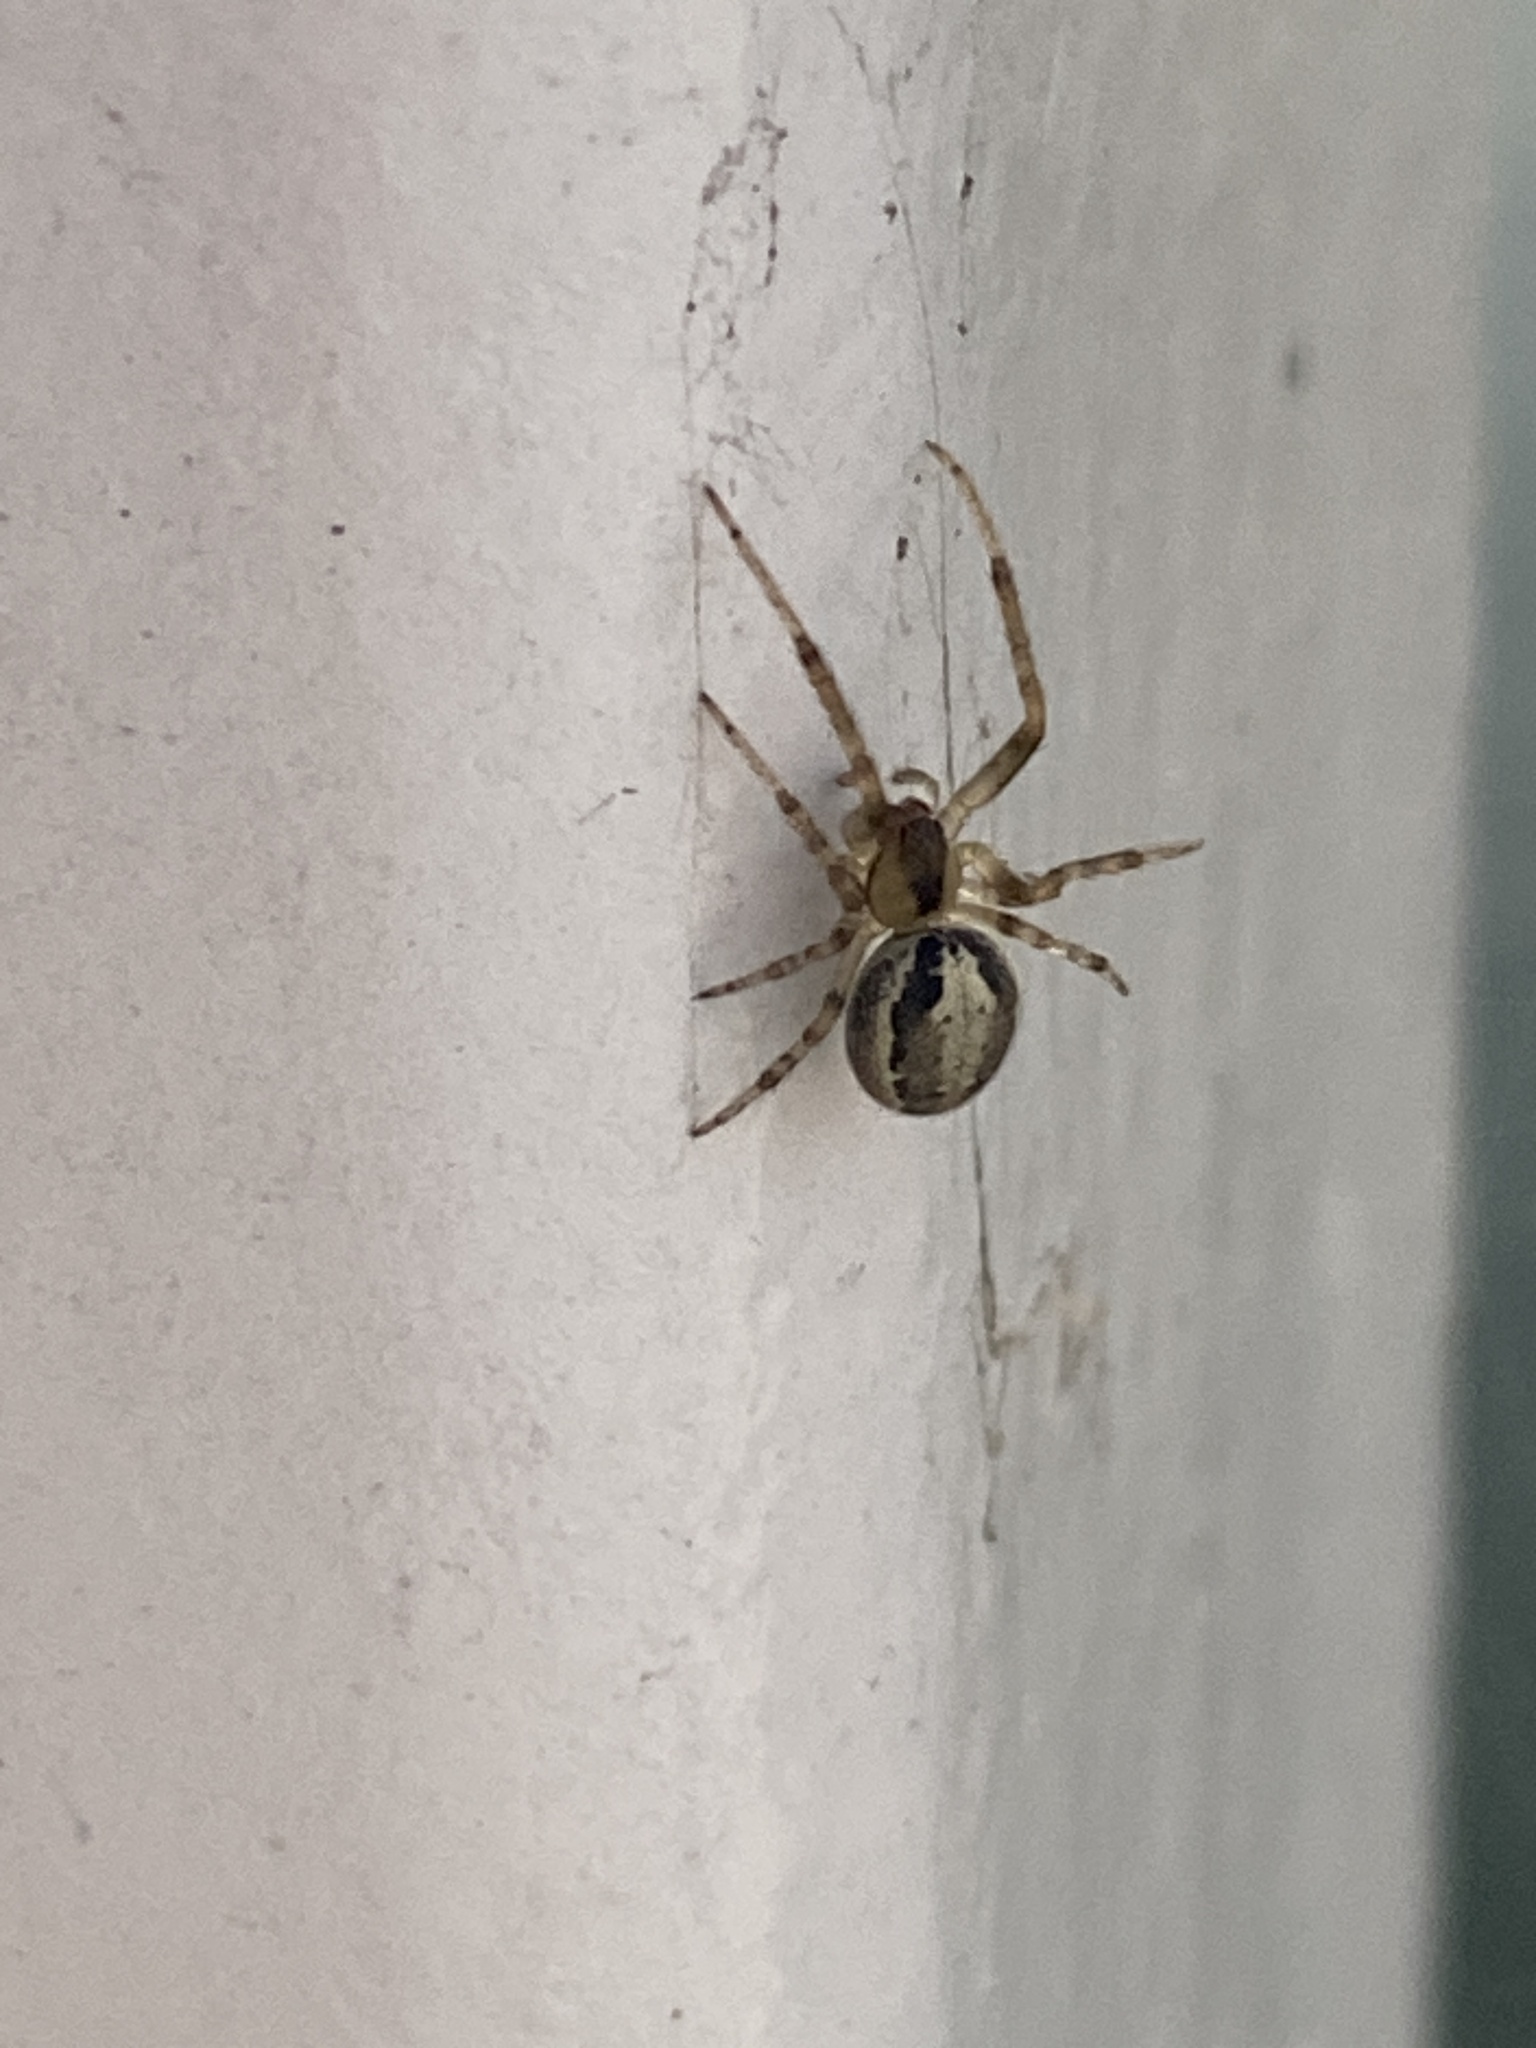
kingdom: Animalia
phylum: Arthropoda
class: Arachnida
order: Araneae
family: Araneidae
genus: Zygiella
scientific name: Zygiella x-notata
